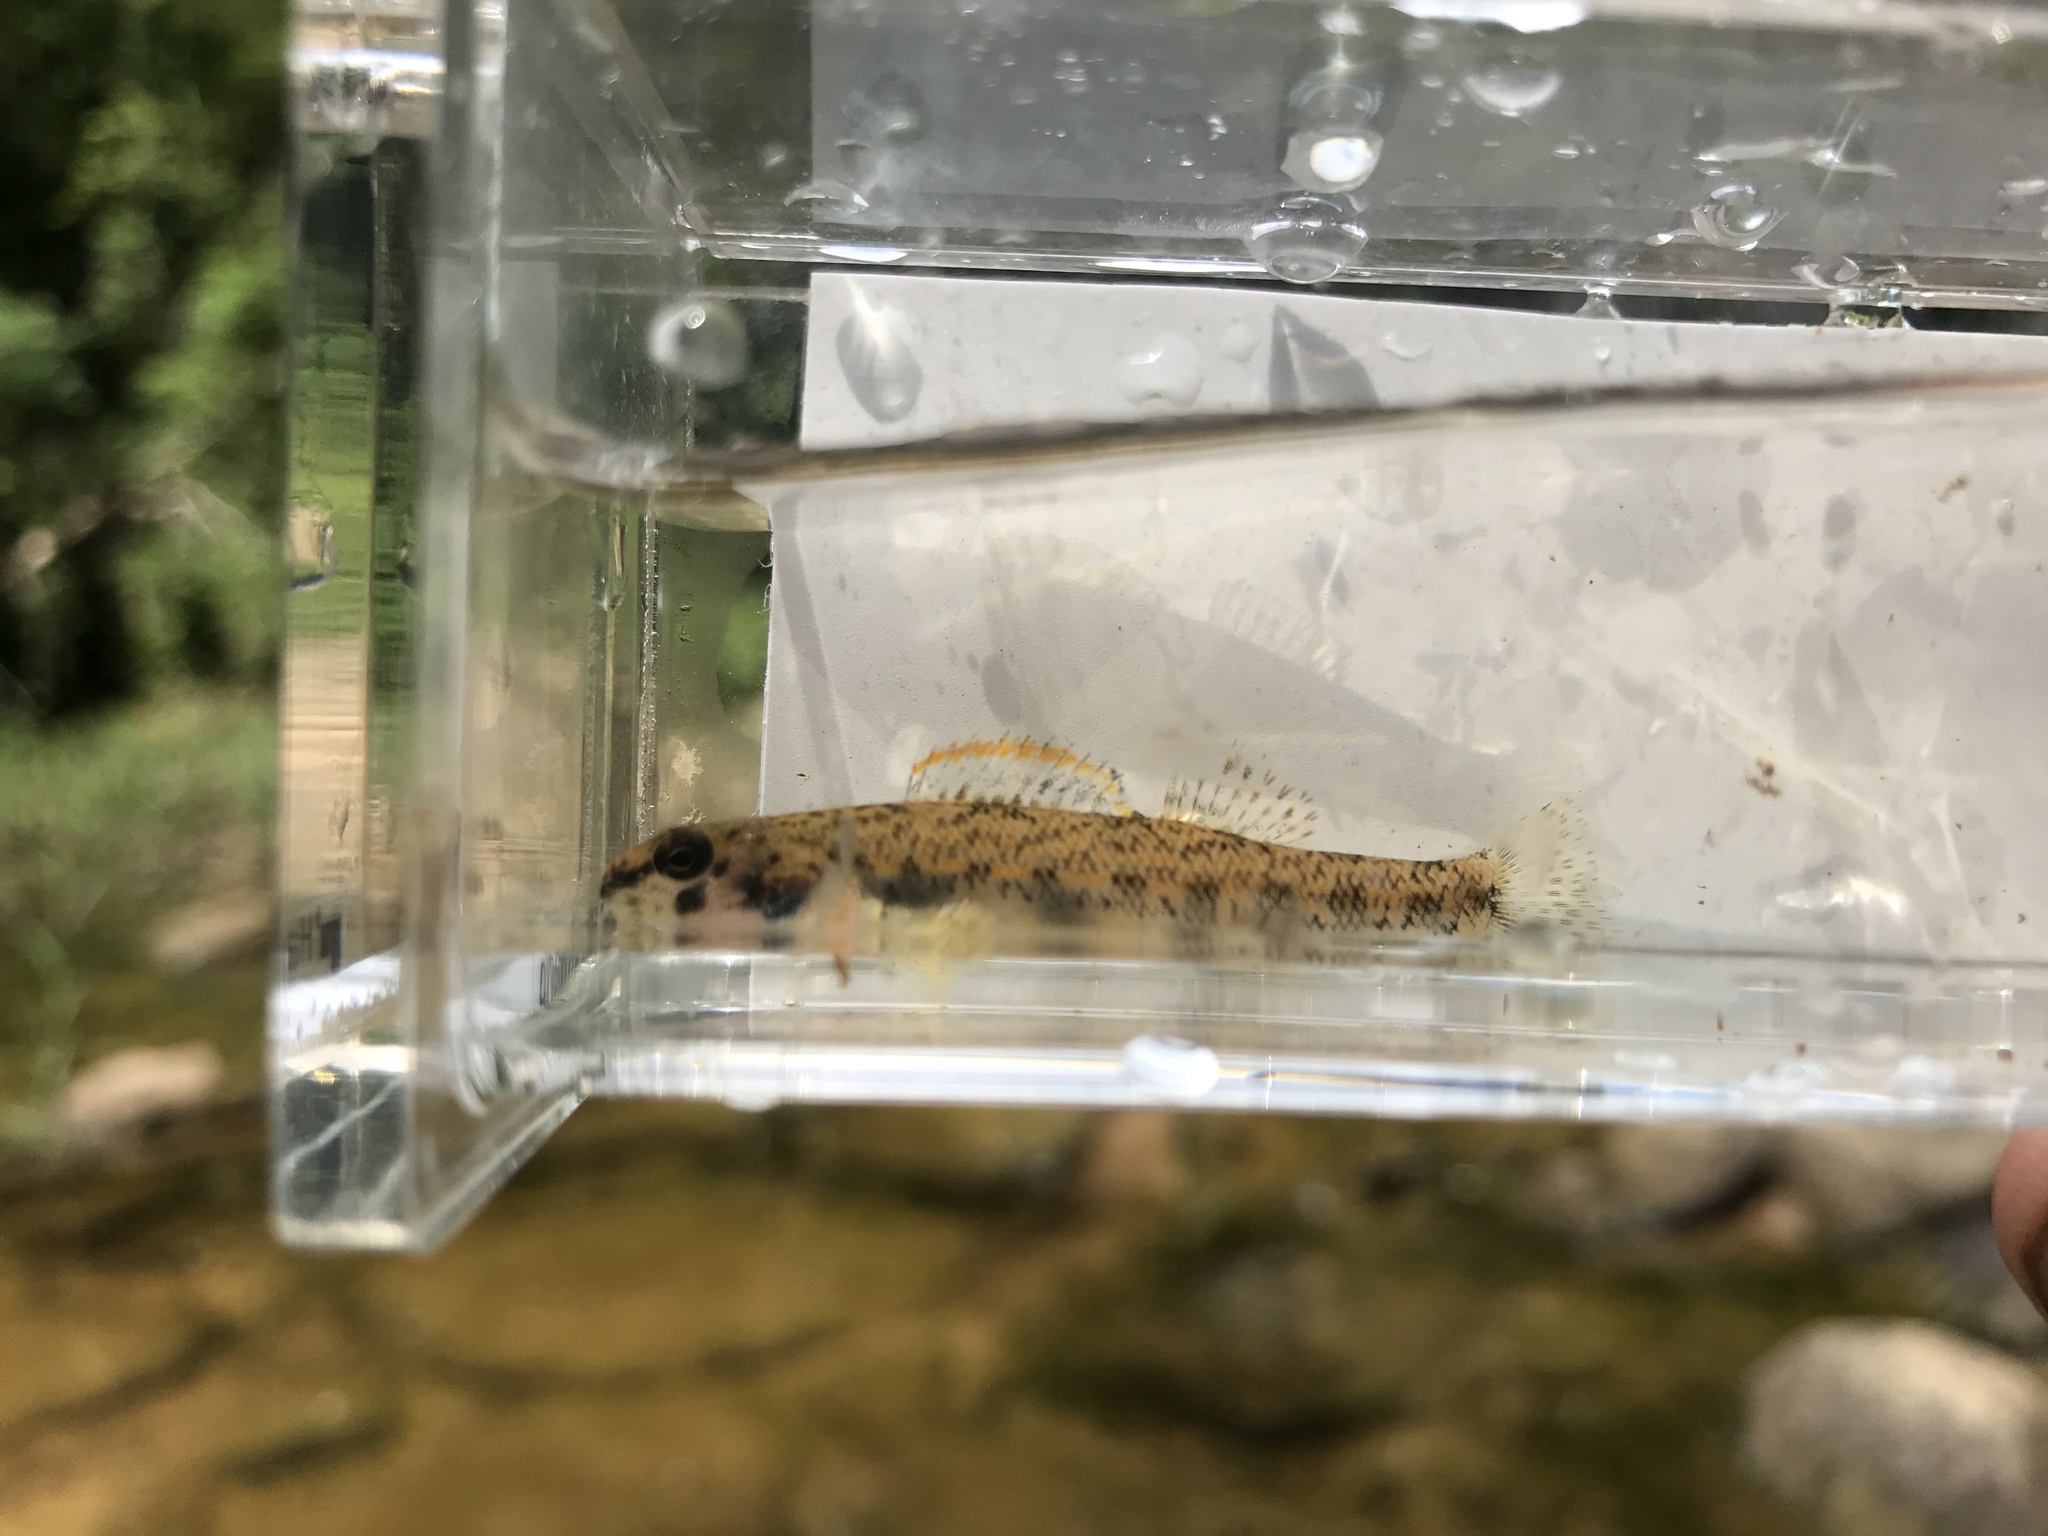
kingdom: Animalia
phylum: Chordata
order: Perciformes
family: Percidae
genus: Etheostoma
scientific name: Etheostoma stigmaeum
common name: Speckled darter
